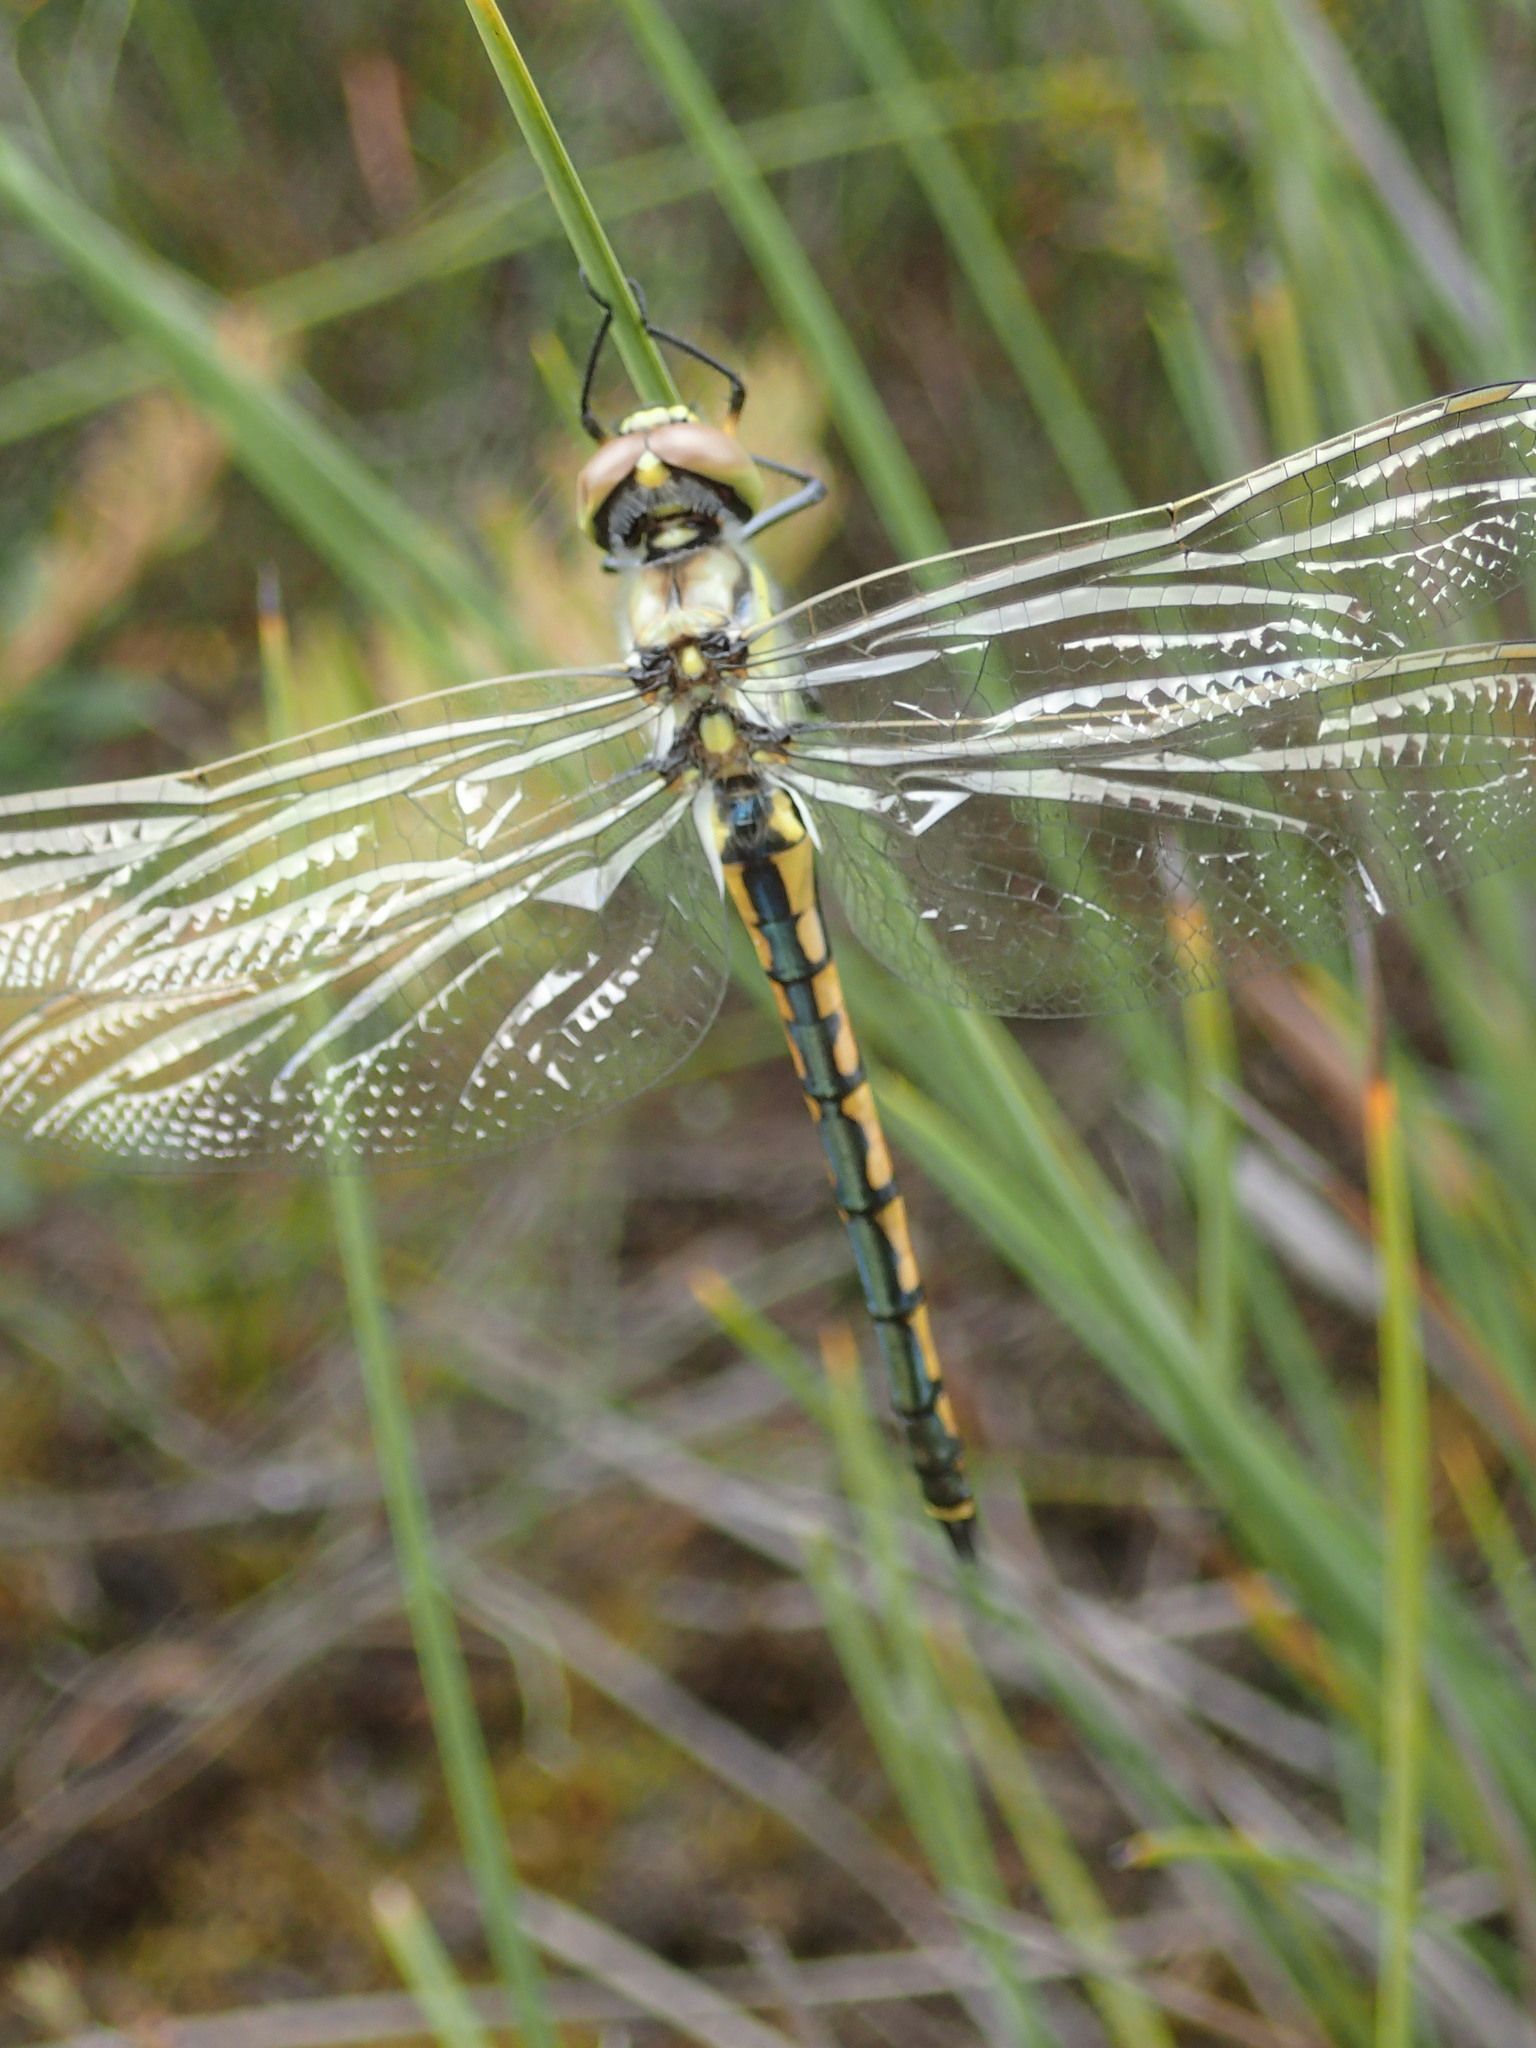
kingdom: Animalia
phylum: Arthropoda
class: Insecta
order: Odonata
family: Corduliidae
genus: Hemicordulia
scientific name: Hemicordulia tau
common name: Tau emerald
